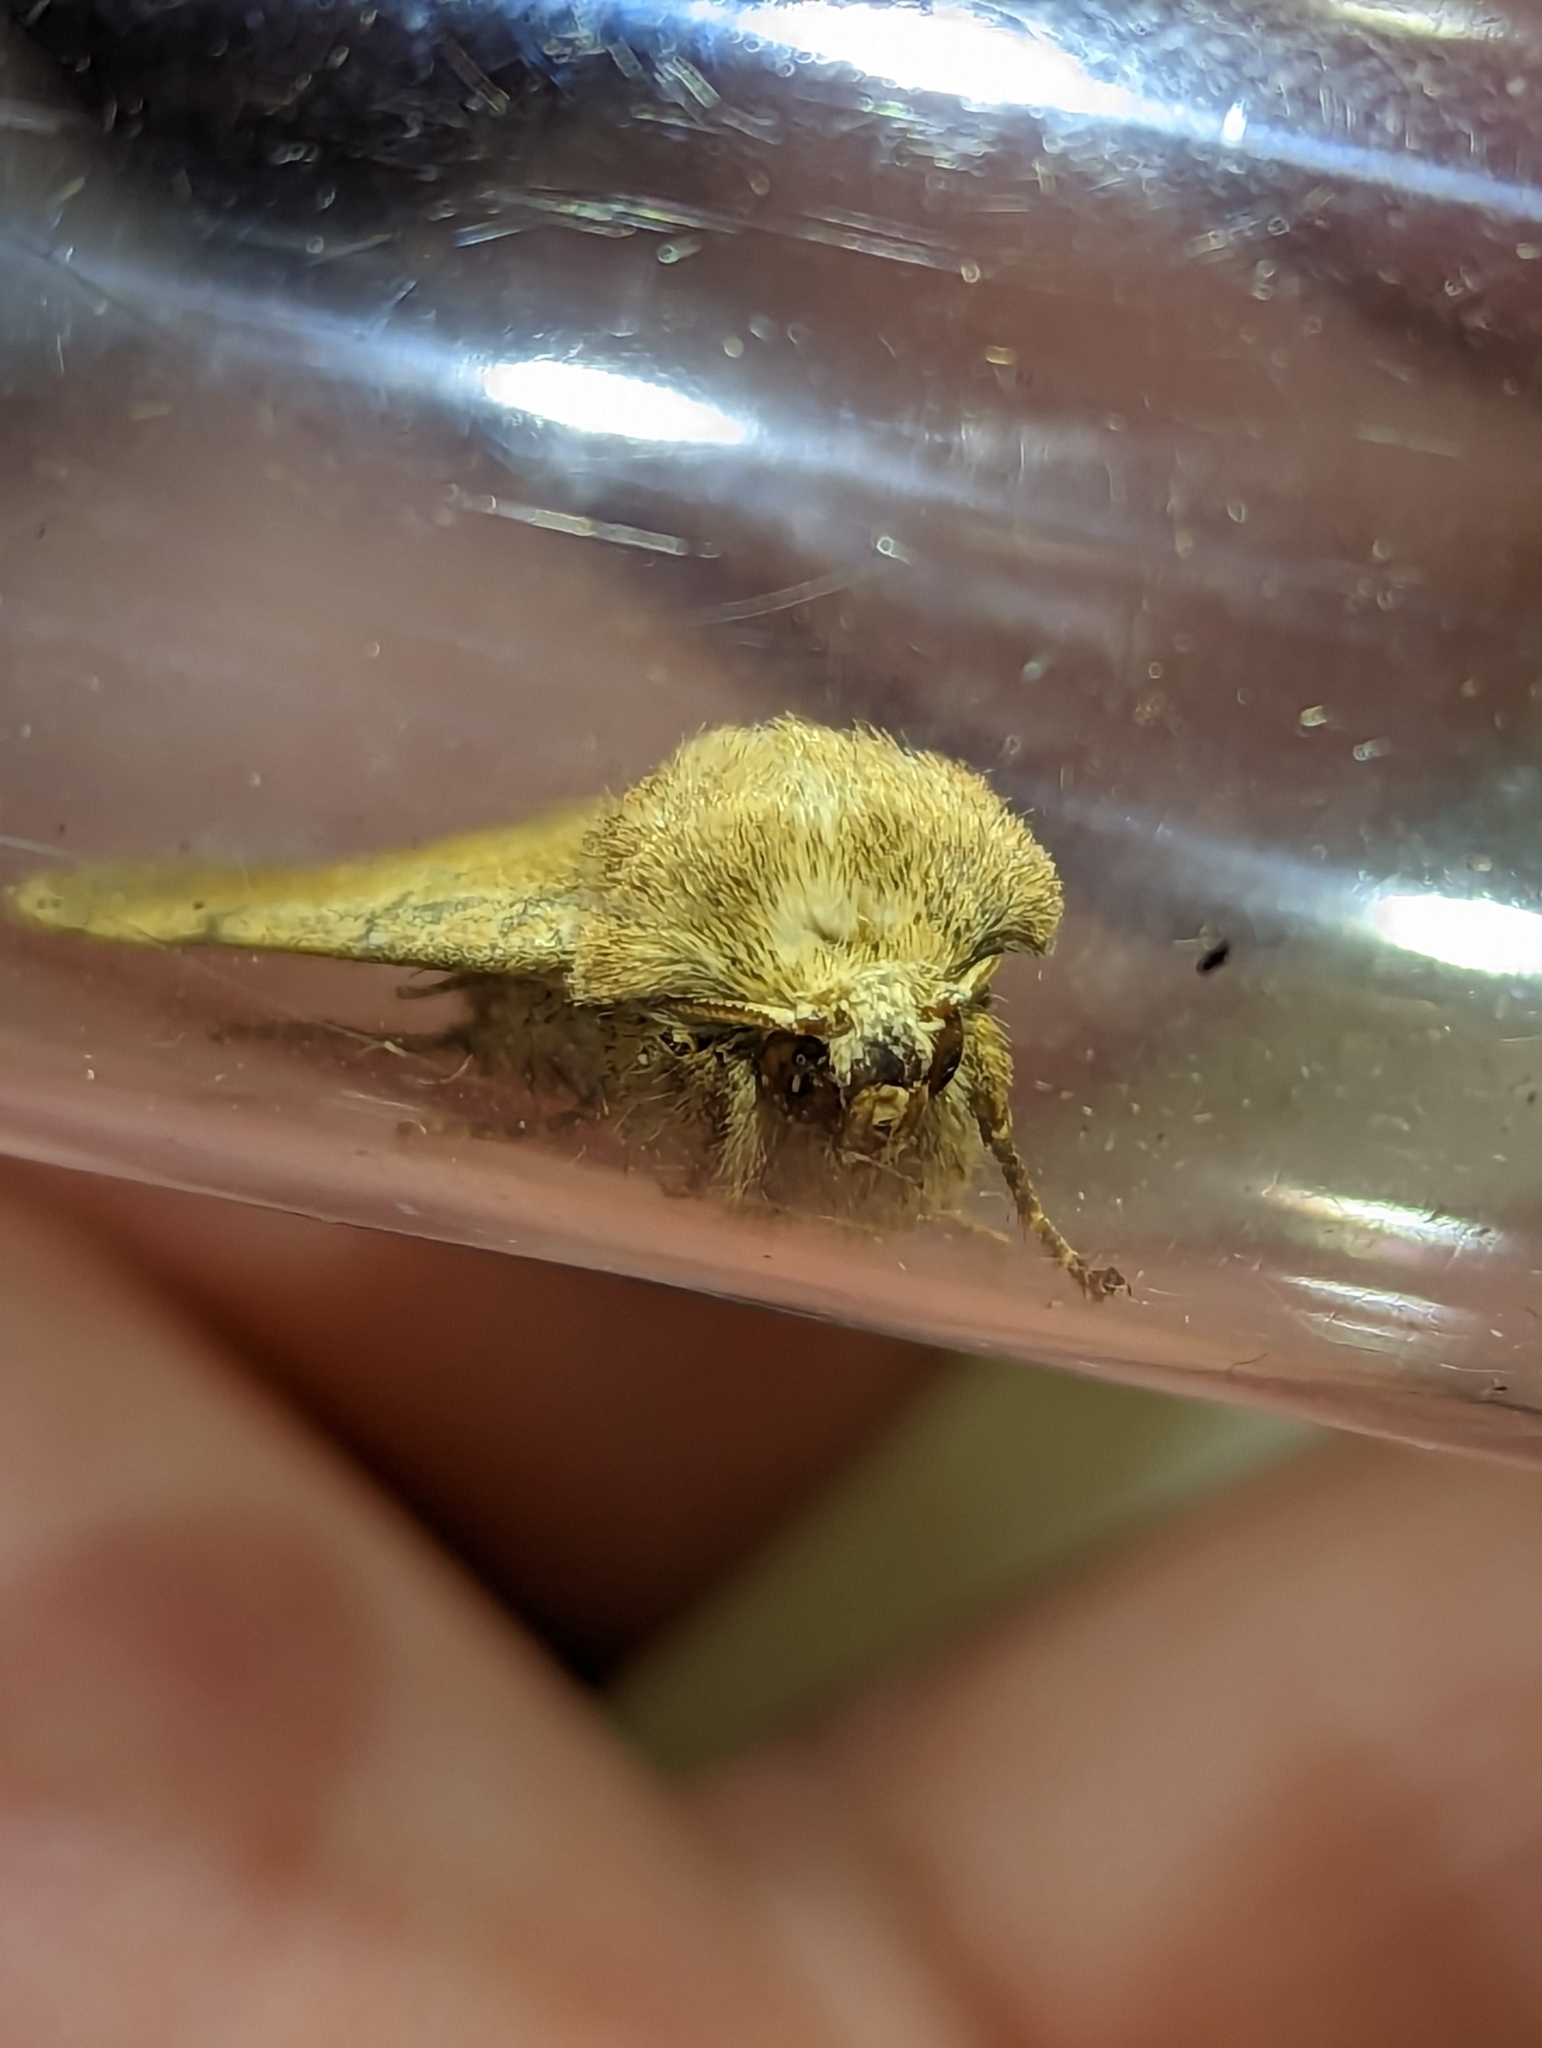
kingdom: Animalia
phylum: Arthropoda
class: Insecta
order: Lepidoptera
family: Noctuidae
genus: Charanyca
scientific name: Charanyca trigrammica
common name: Treble lines
